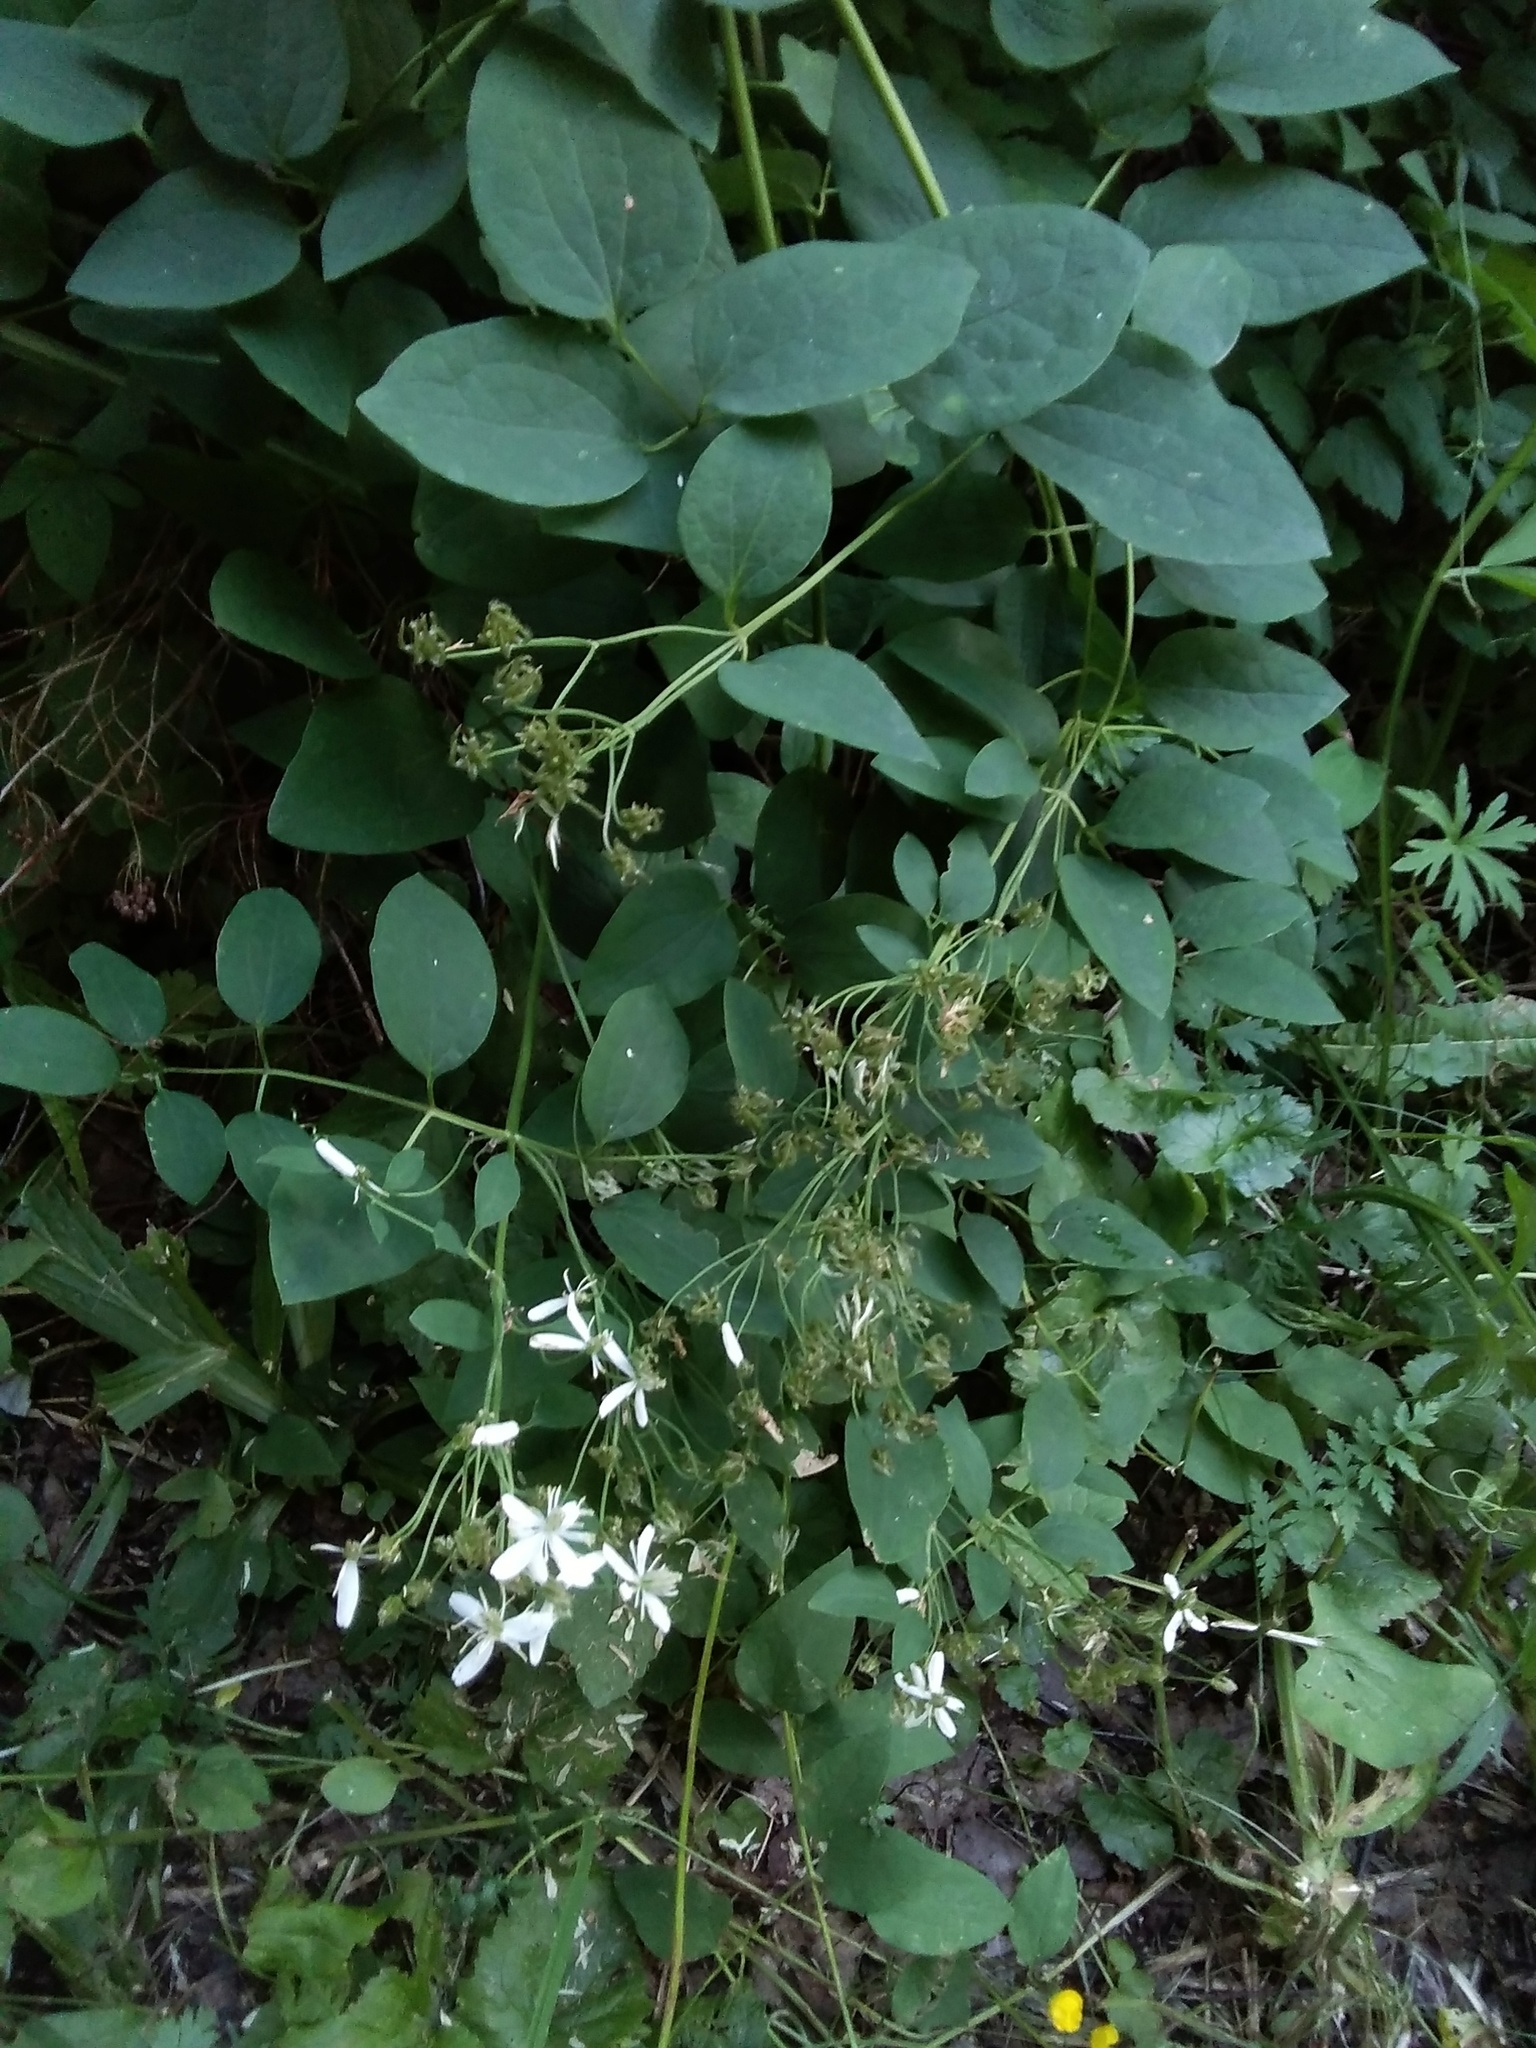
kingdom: Plantae
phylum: Tracheophyta
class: Magnoliopsida
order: Ranunculales
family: Ranunculaceae
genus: Clematis
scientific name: Clematis terniflora
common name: Sweet autumn clematis
